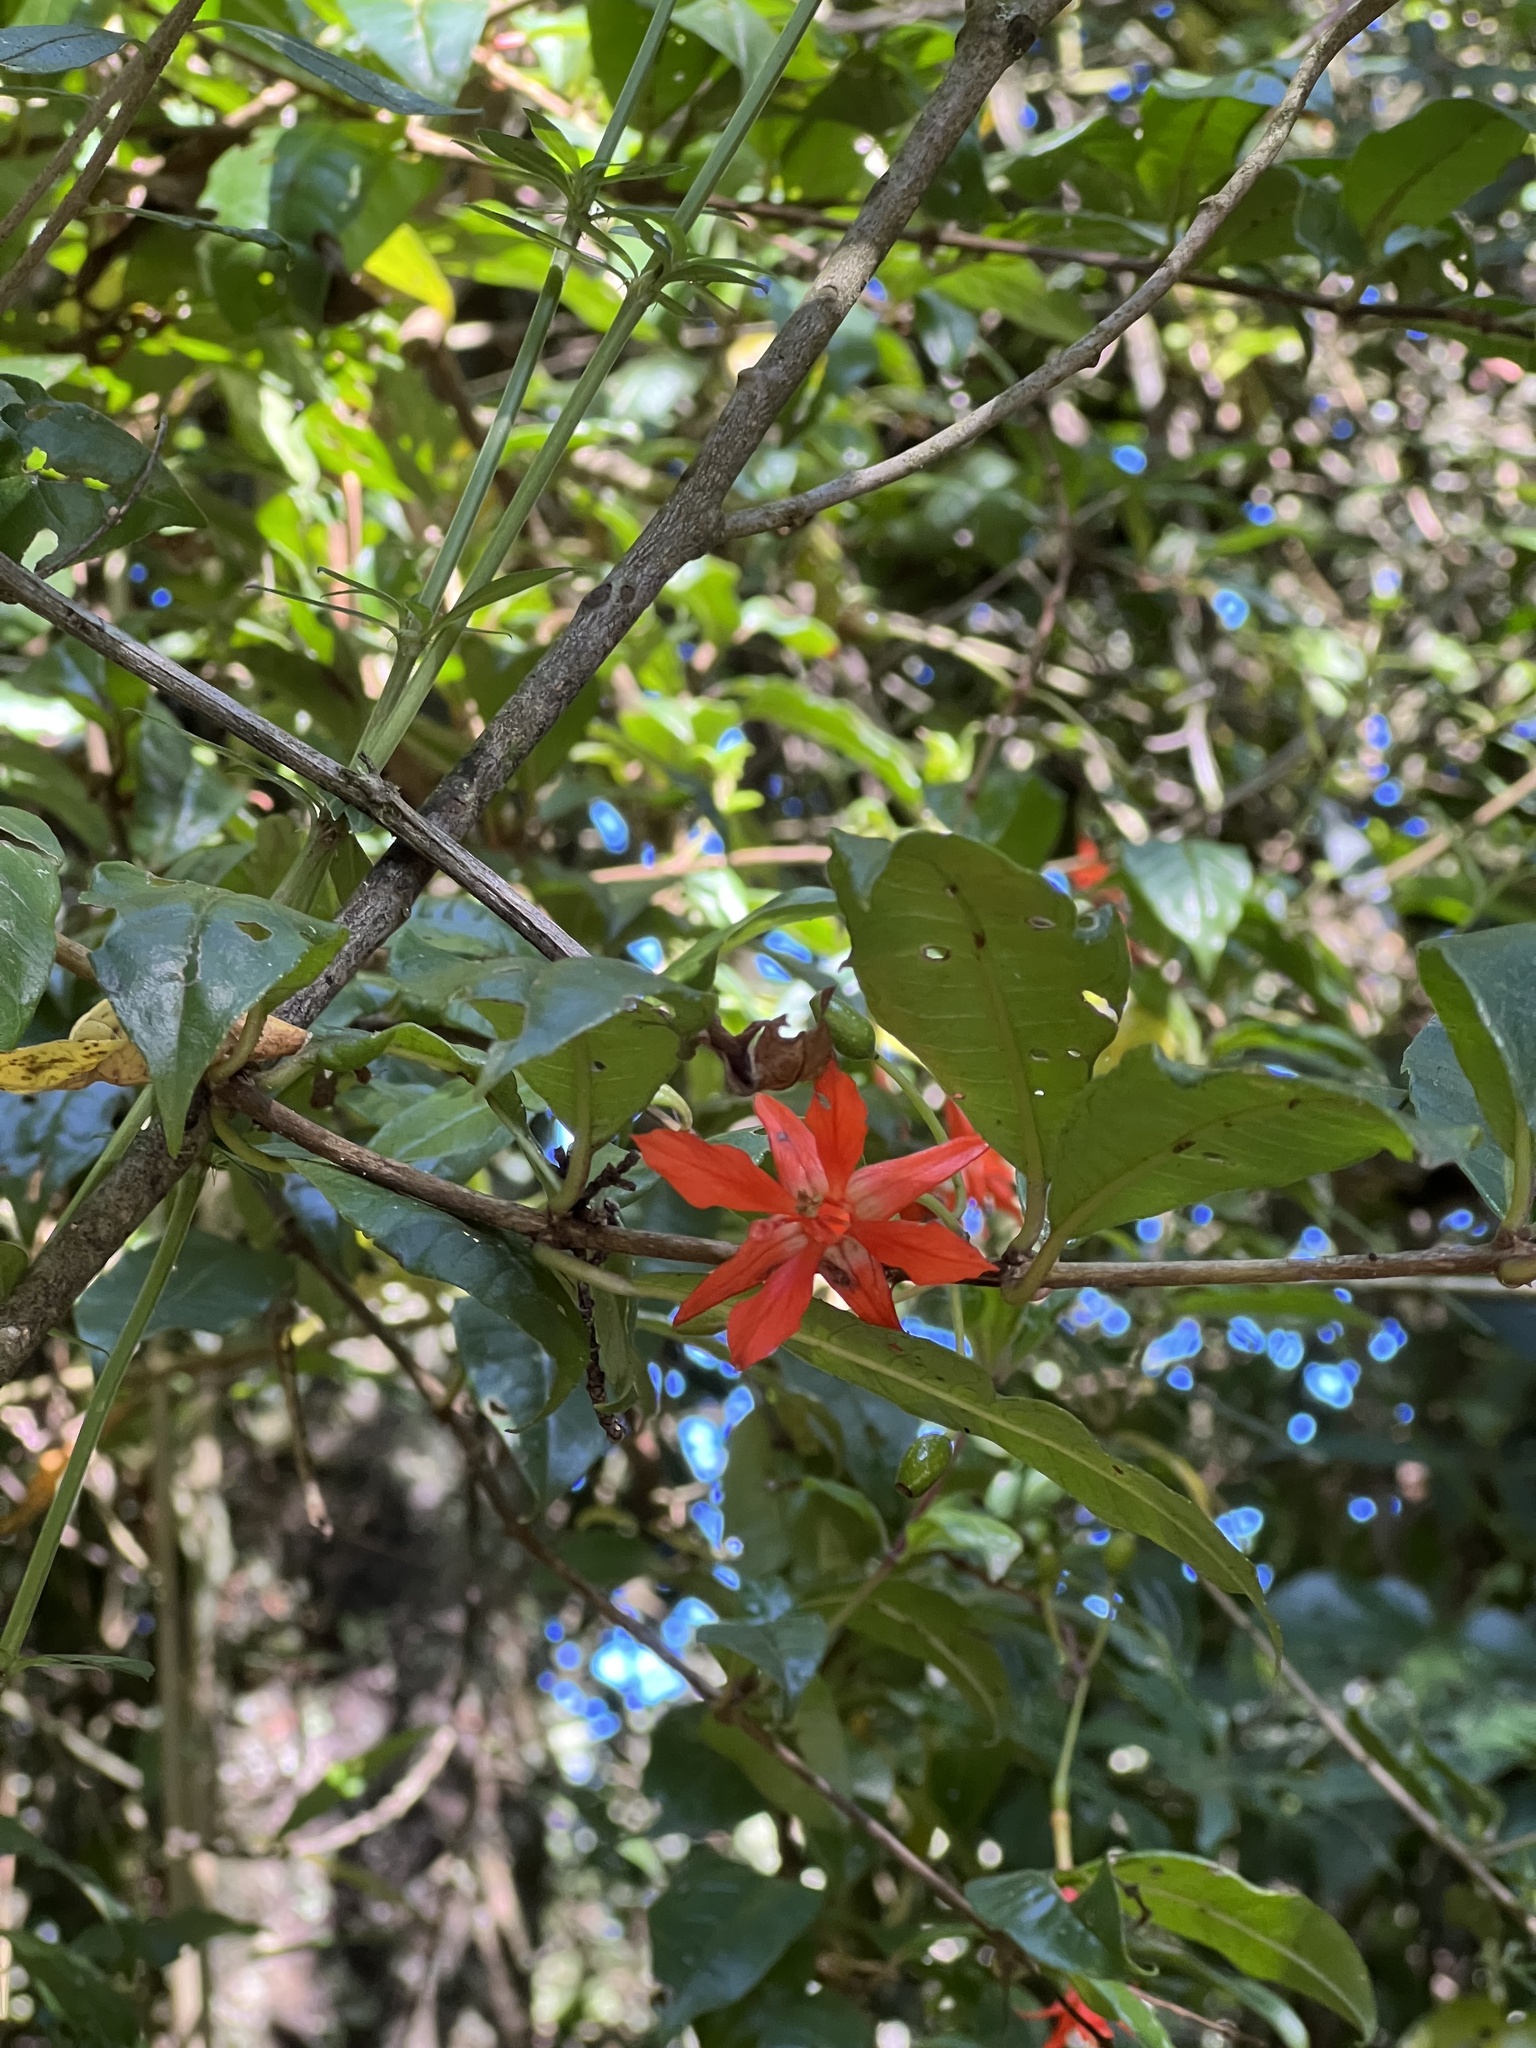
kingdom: Plantae
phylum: Tracheophyta
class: Magnoliopsida
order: Myrtales
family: Onagraceae
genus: Fuchsia
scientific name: Fuchsia venusta
